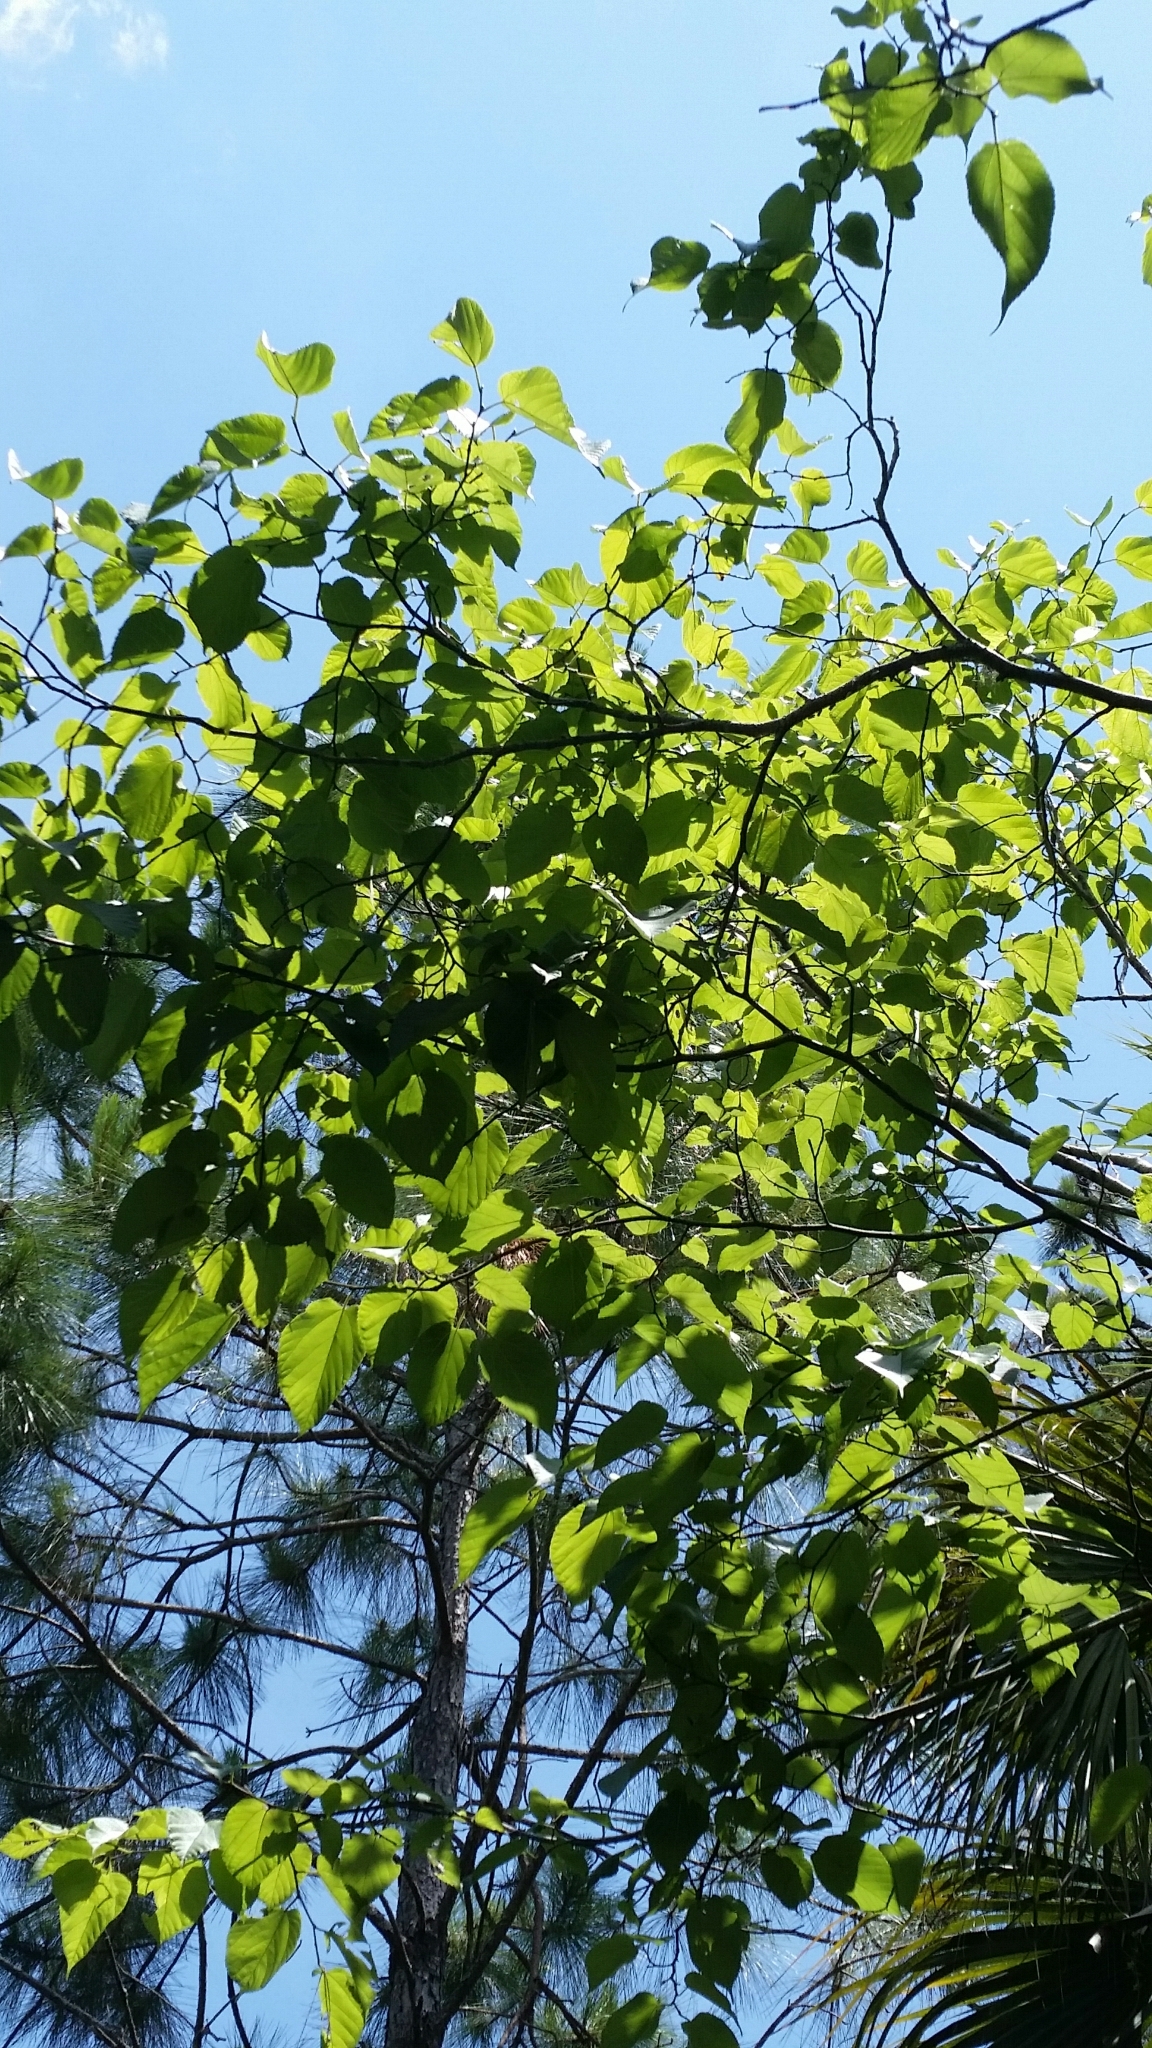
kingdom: Plantae
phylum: Tracheophyta
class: Magnoliopsida
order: Rosales
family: Moraceae
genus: Morus
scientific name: Morus rubra
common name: Red mulberry
